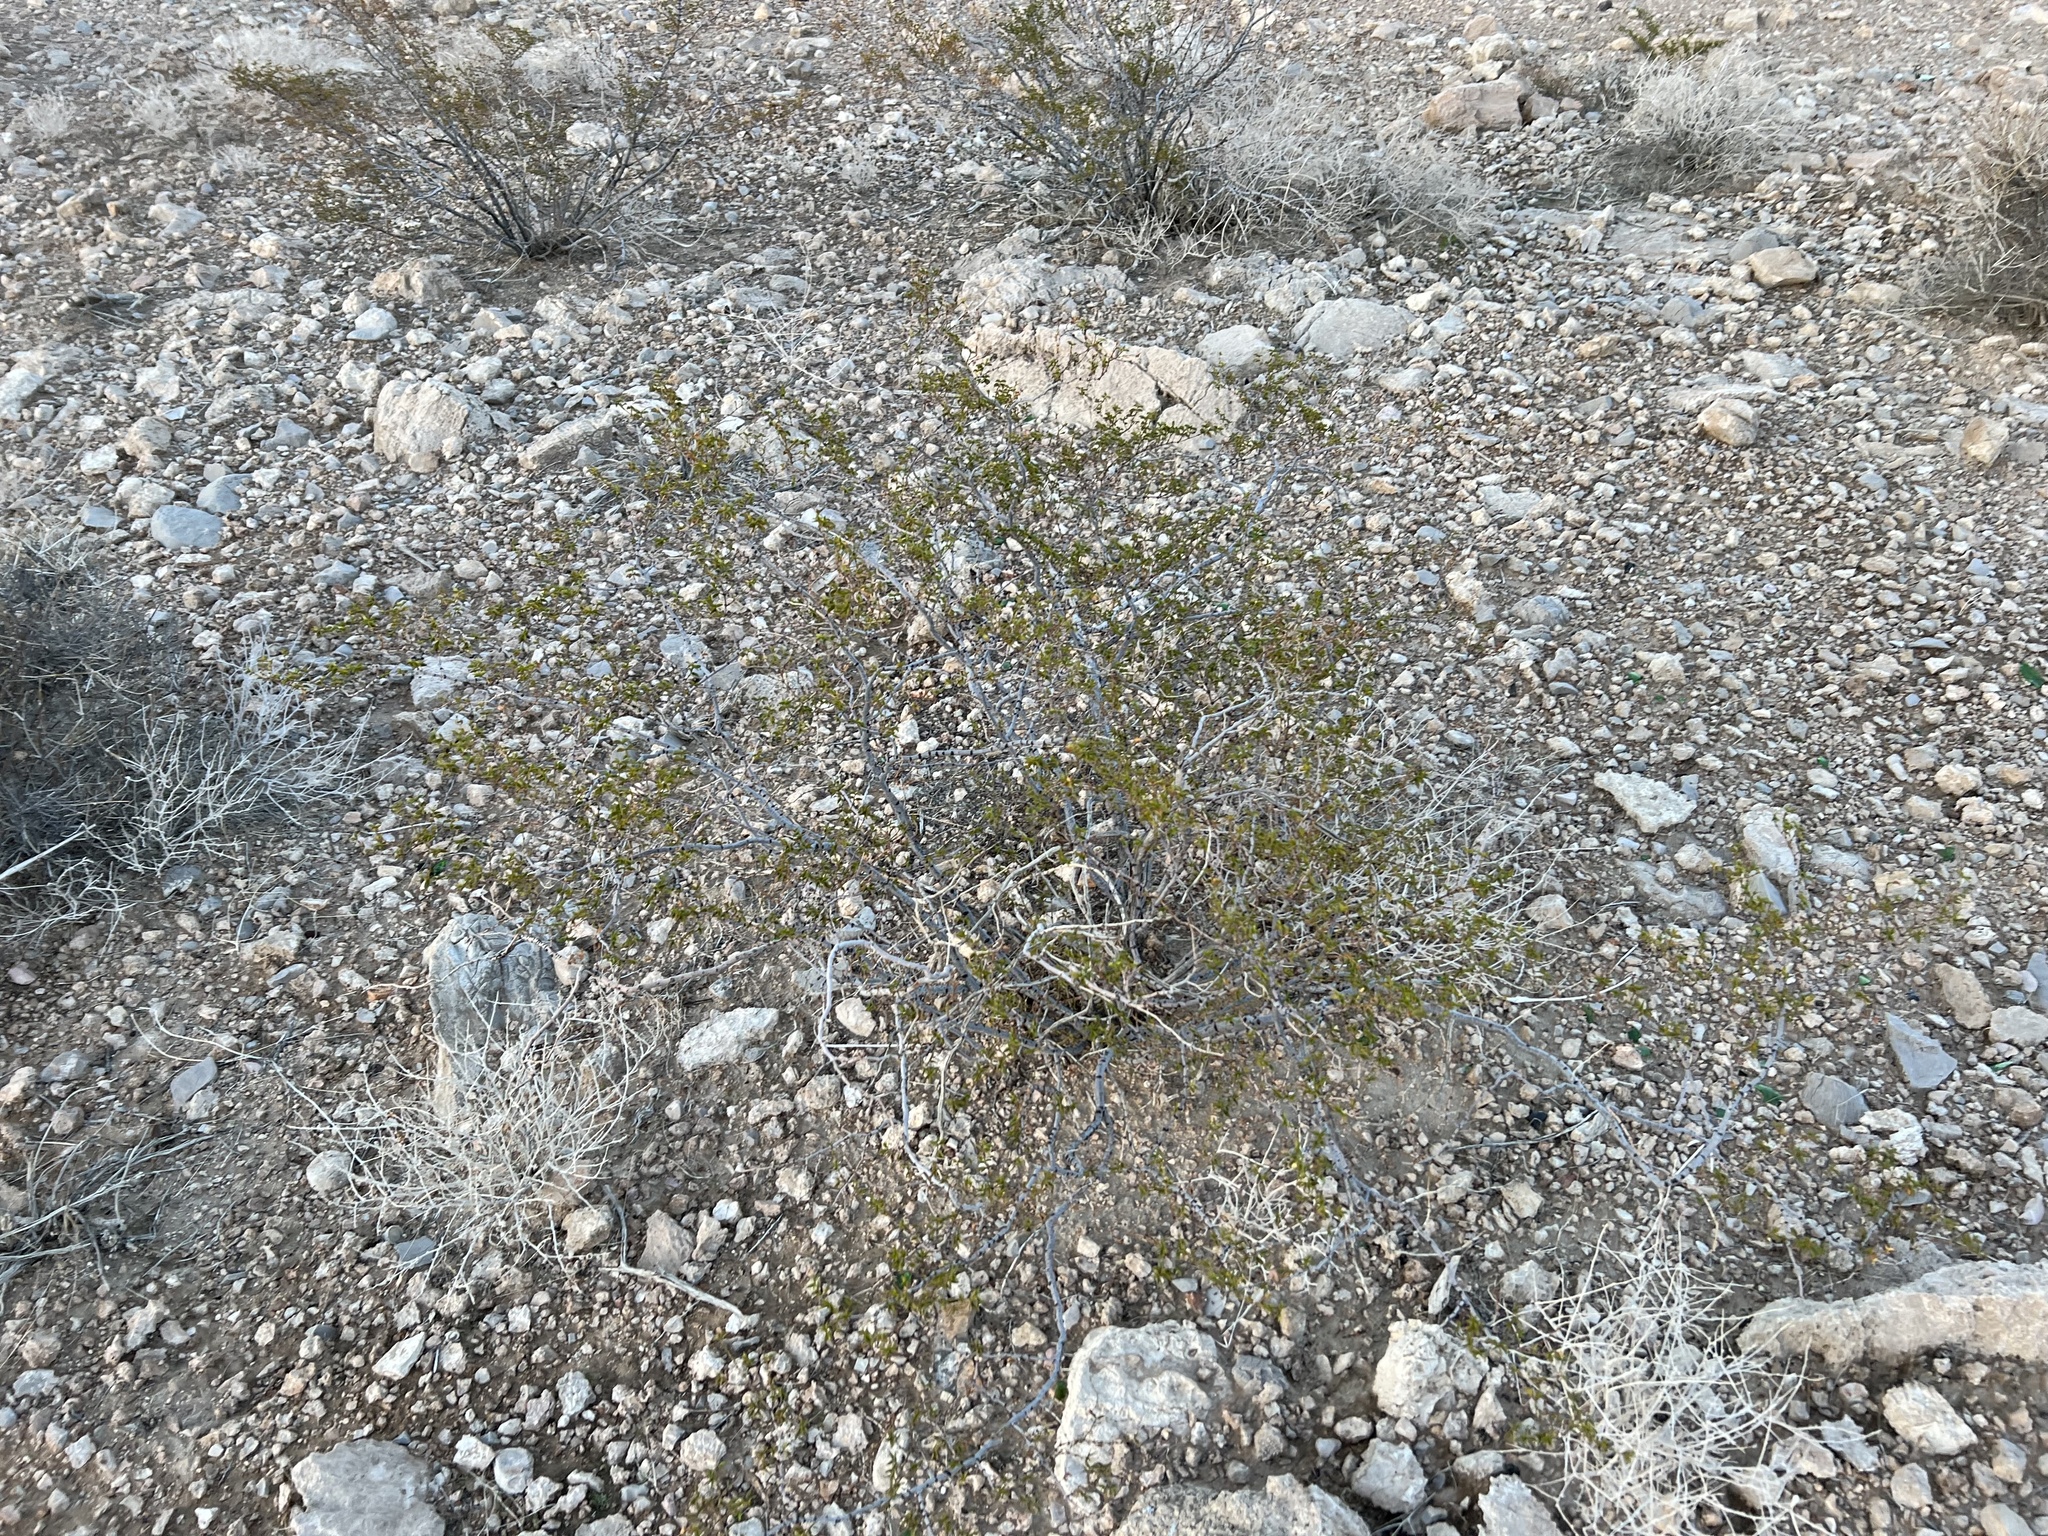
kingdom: Plantae
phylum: Tracheophyta
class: Magnoliopsida
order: Zygophyllales
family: Zygophyllaceae
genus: Larrea
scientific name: Larrea tridentata
